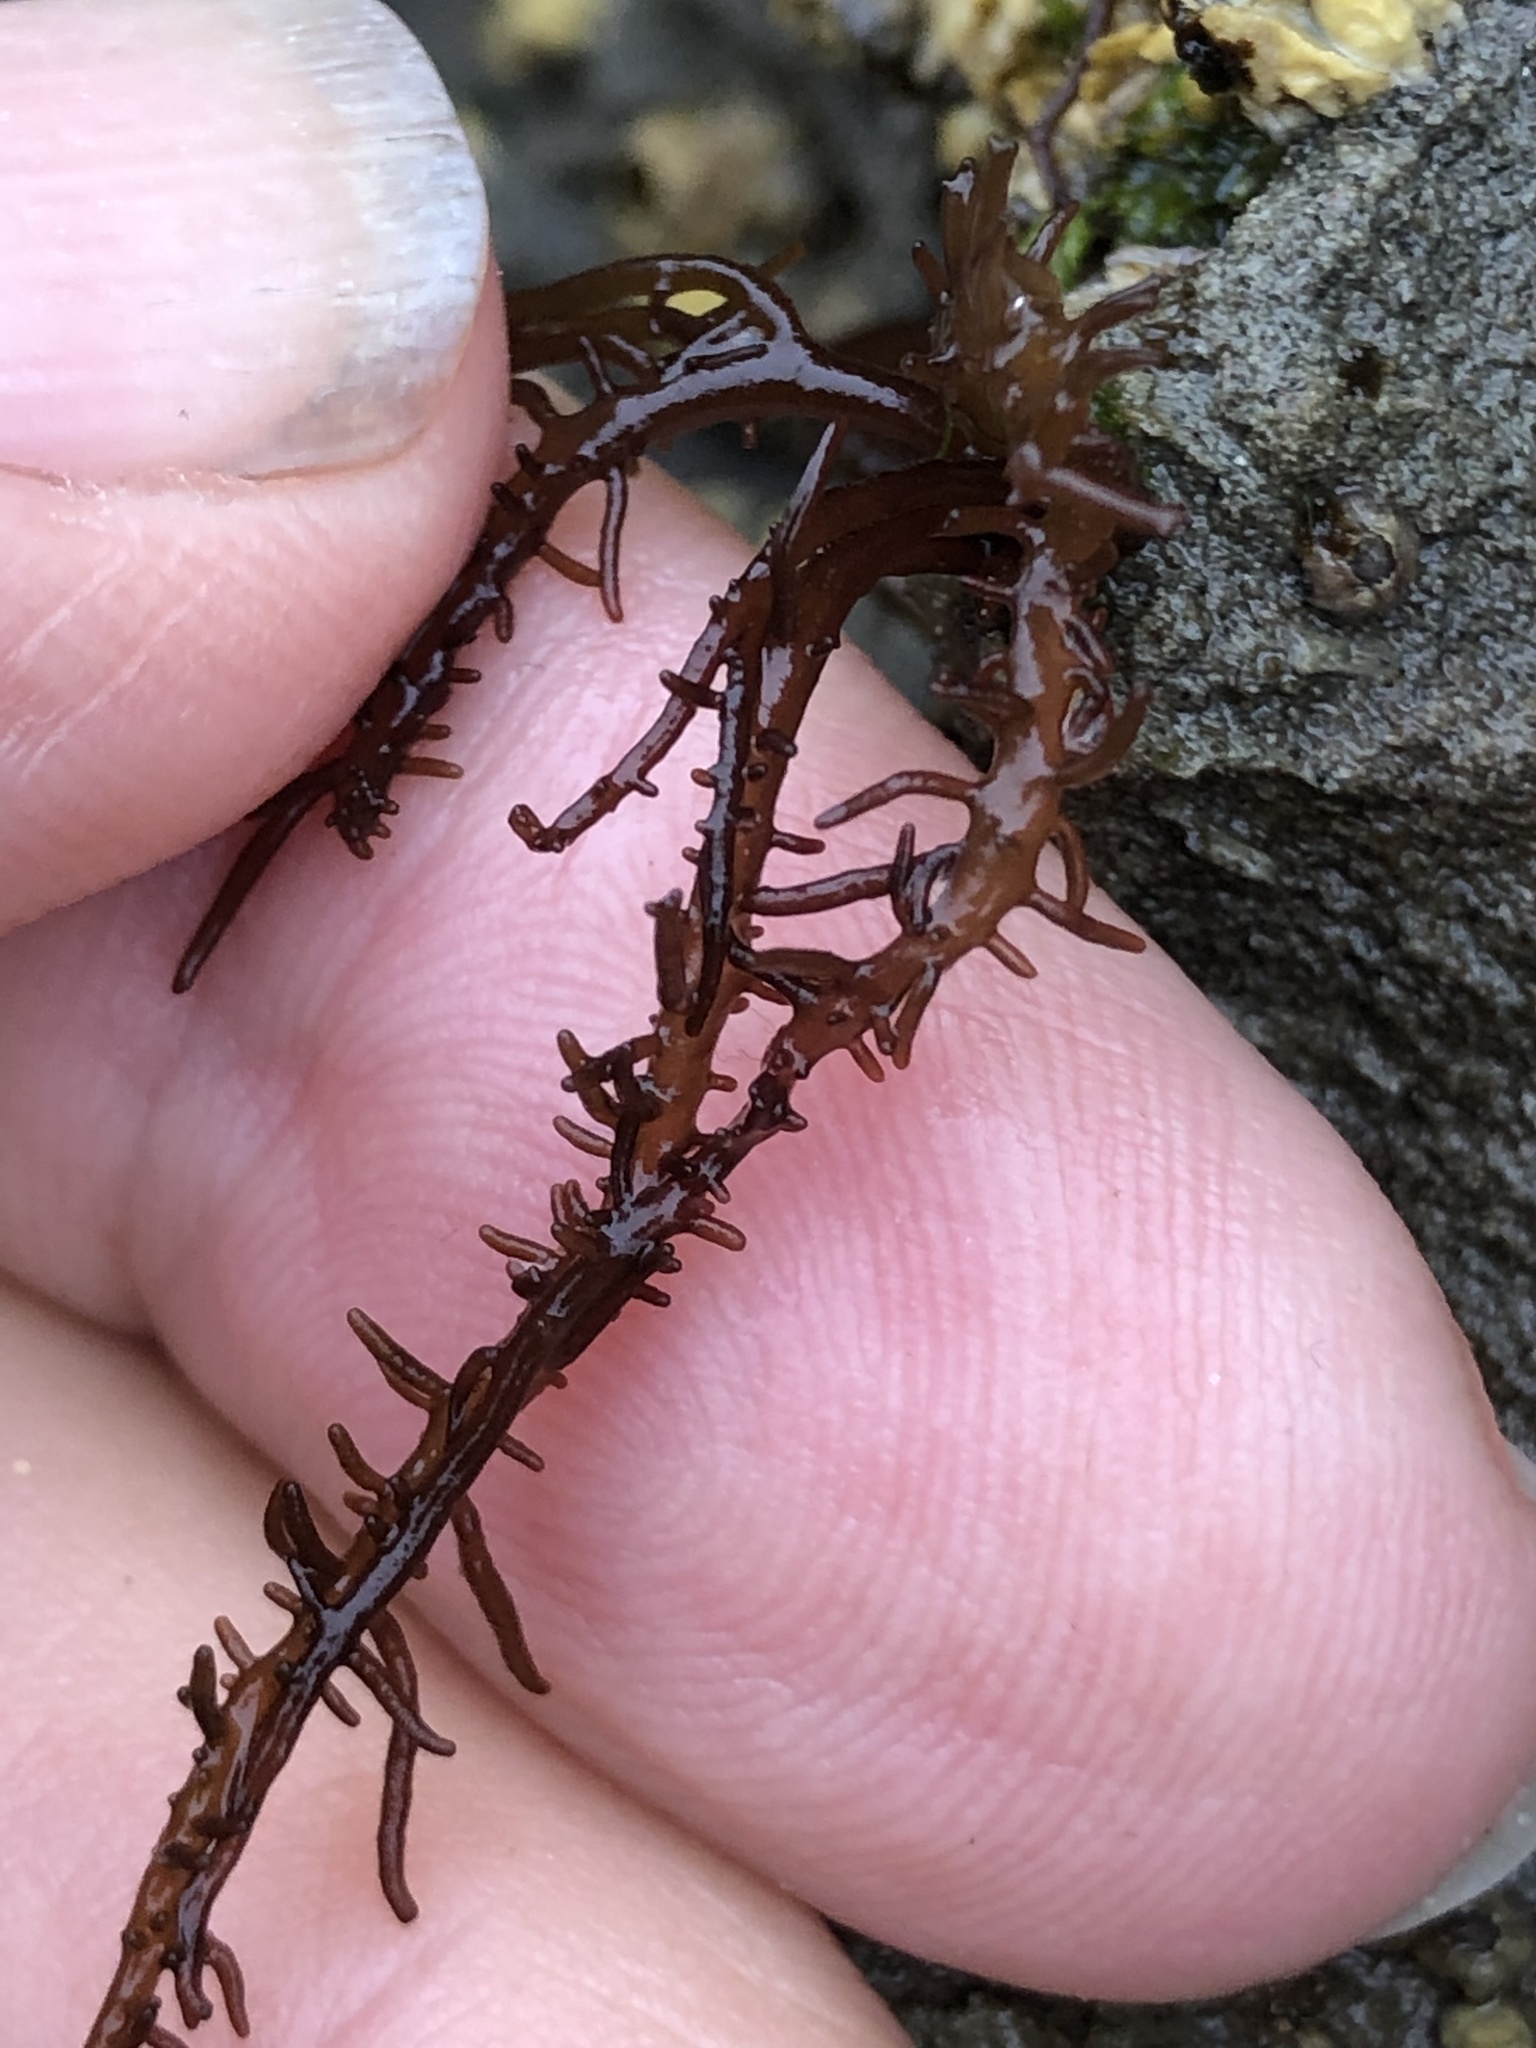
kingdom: Plantae
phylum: Rhodophyta
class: Florideophyceae
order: Nemaliales
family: Liagoraceae
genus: Cumagloia
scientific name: Cumagloia andersonii
